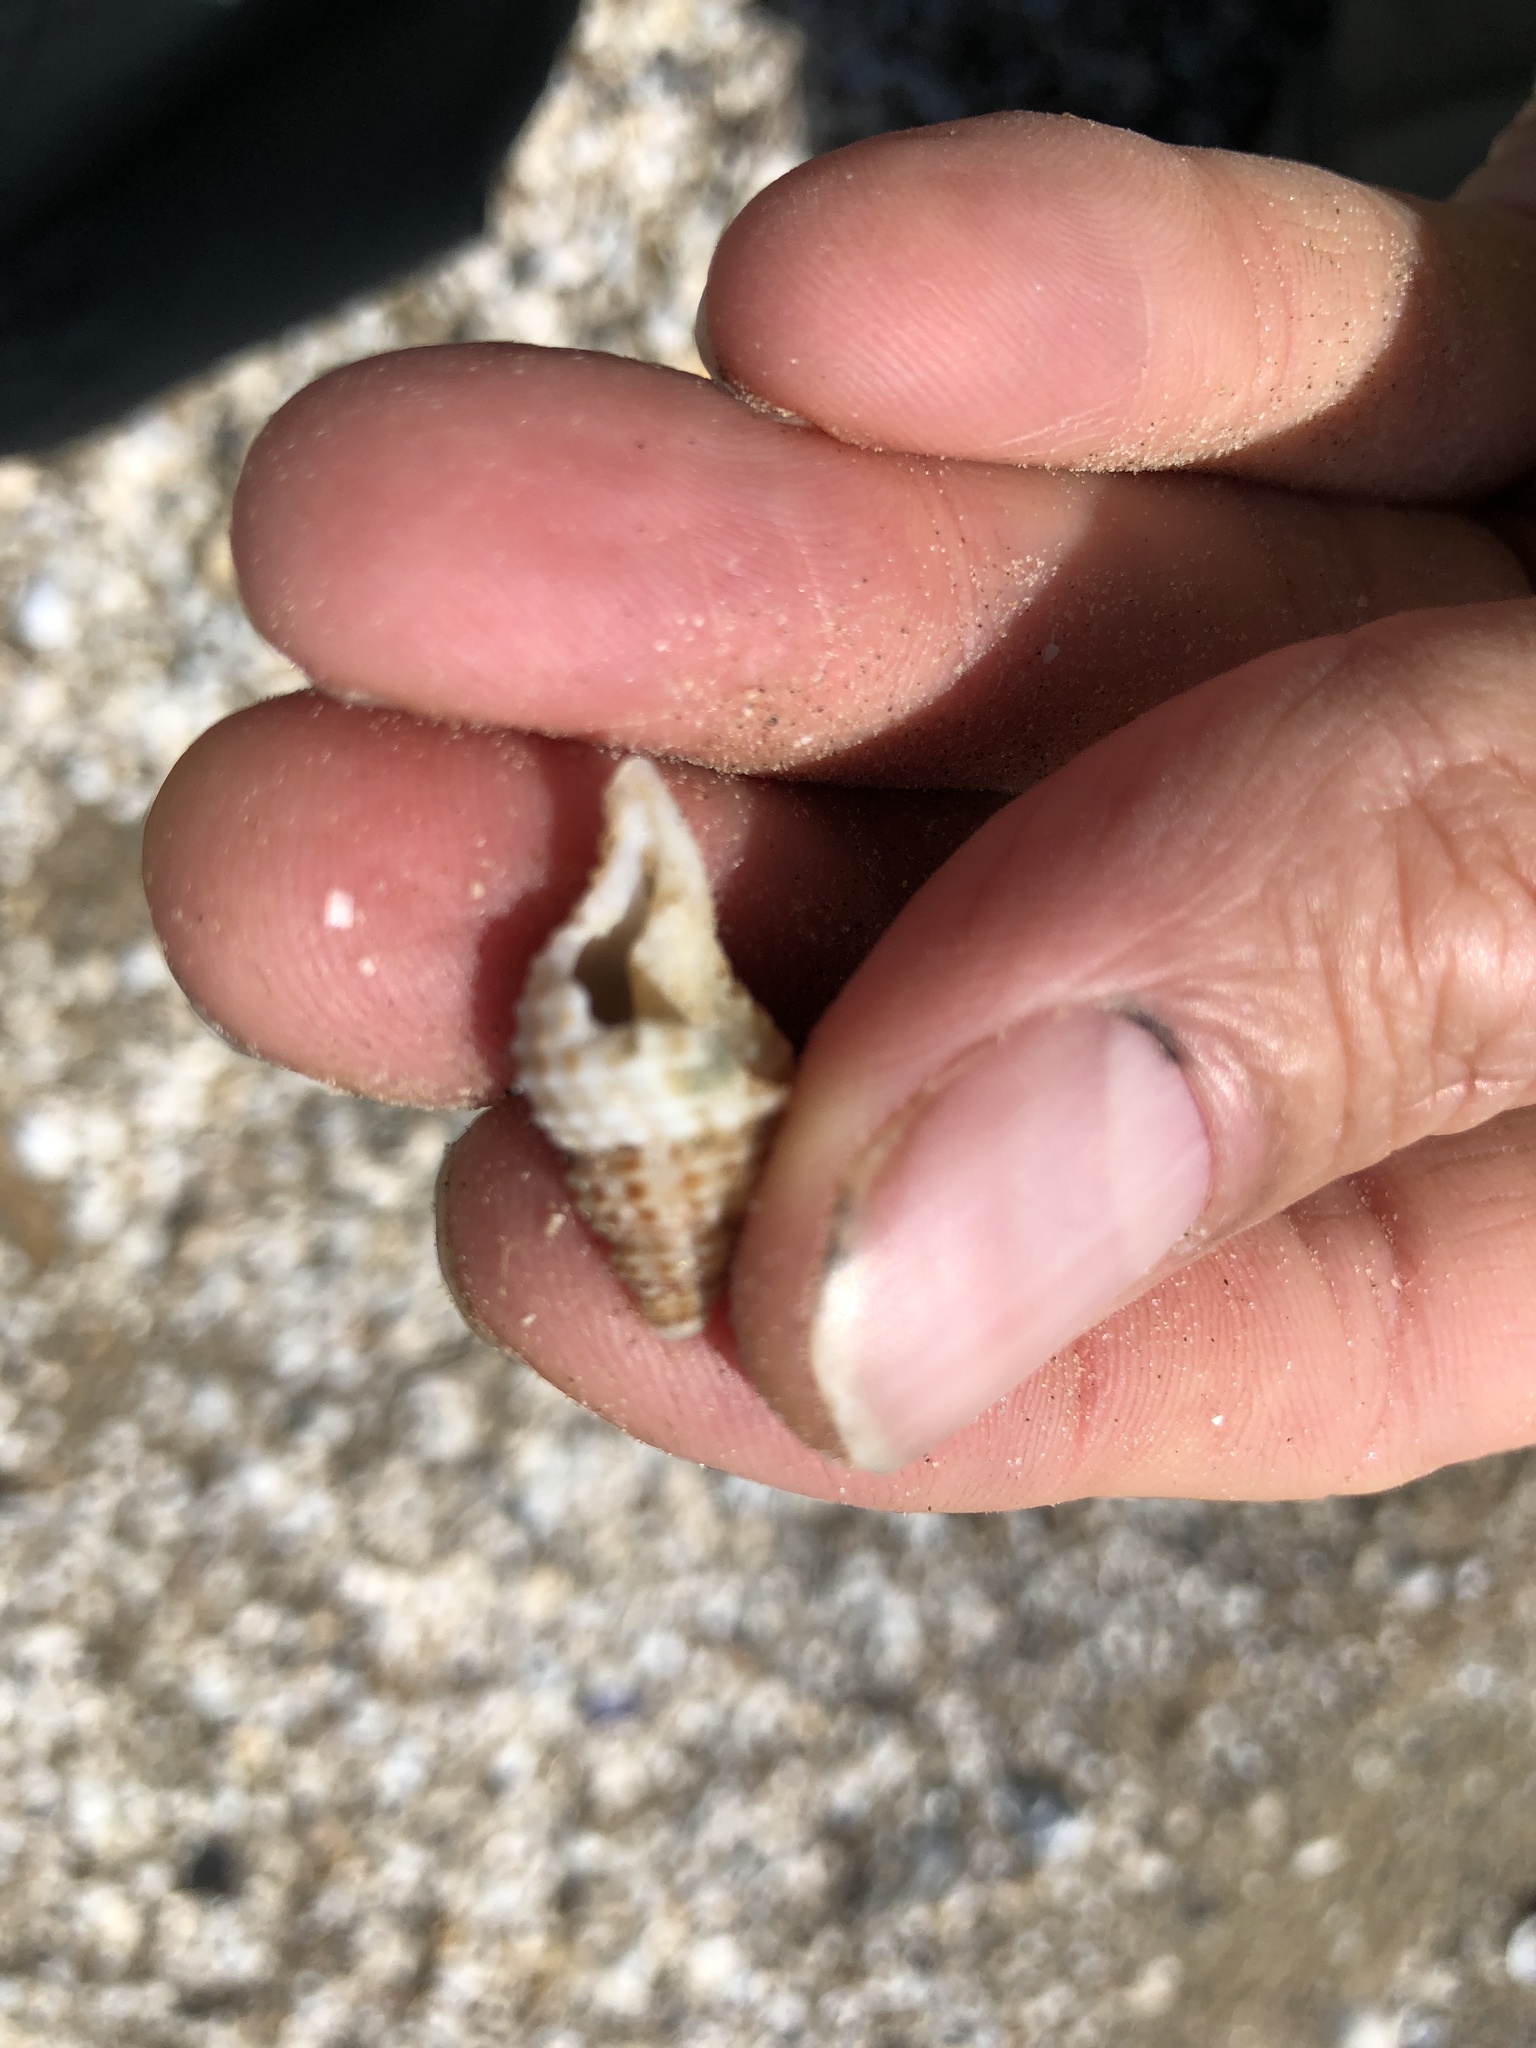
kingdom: Animalia
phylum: Mollusca
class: Gastropoda
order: Neogastropoda
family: Pisaniidae
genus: Solenosteira
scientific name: Solenosteira cancellaria
